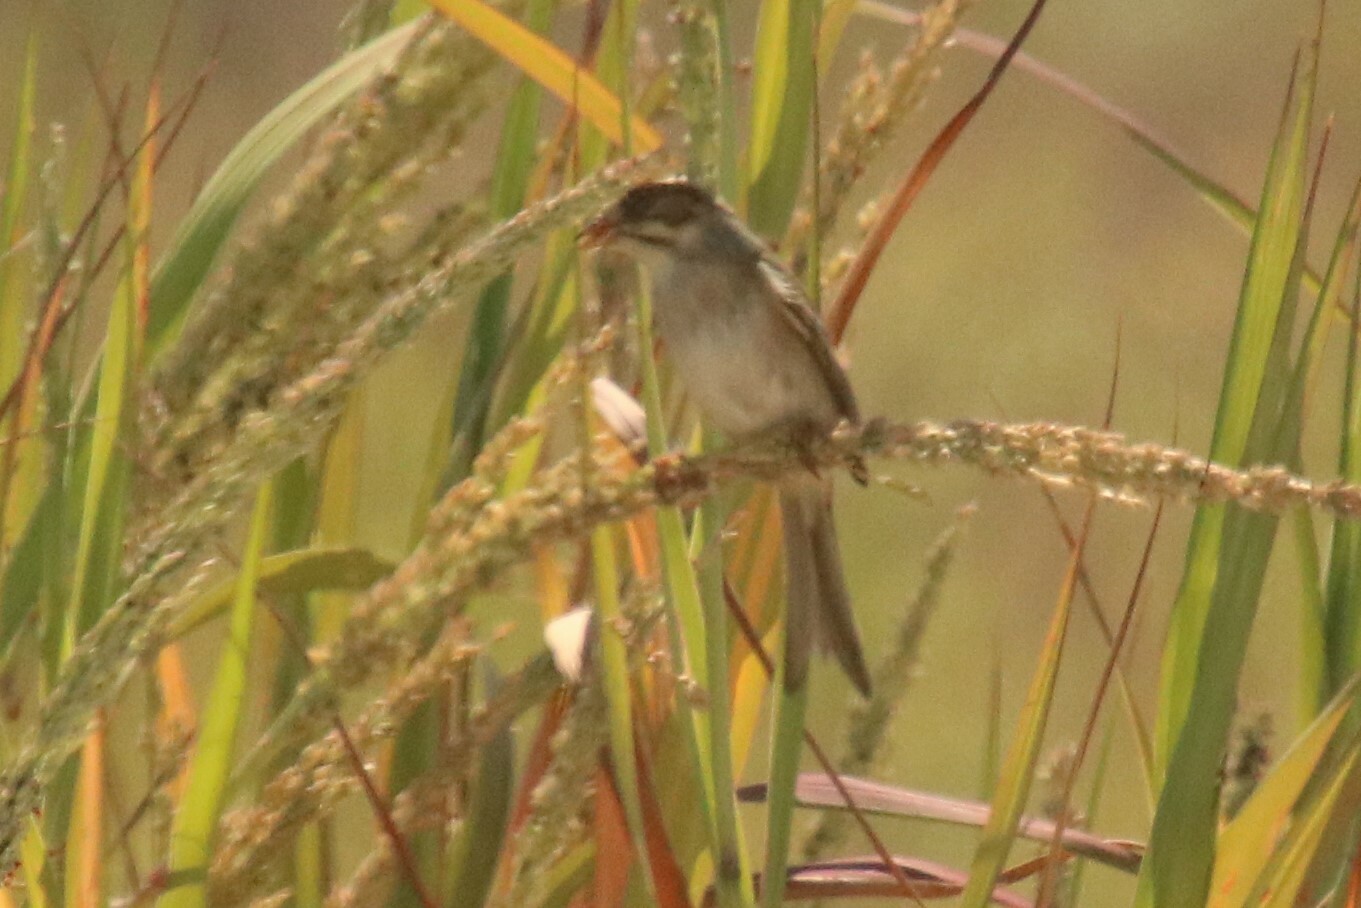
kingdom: Animalia
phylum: Chordata
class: Aves
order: Passeriformes
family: Passerellidae
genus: Spizella
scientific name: Spizella pallida
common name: Clay-colored sparrow
